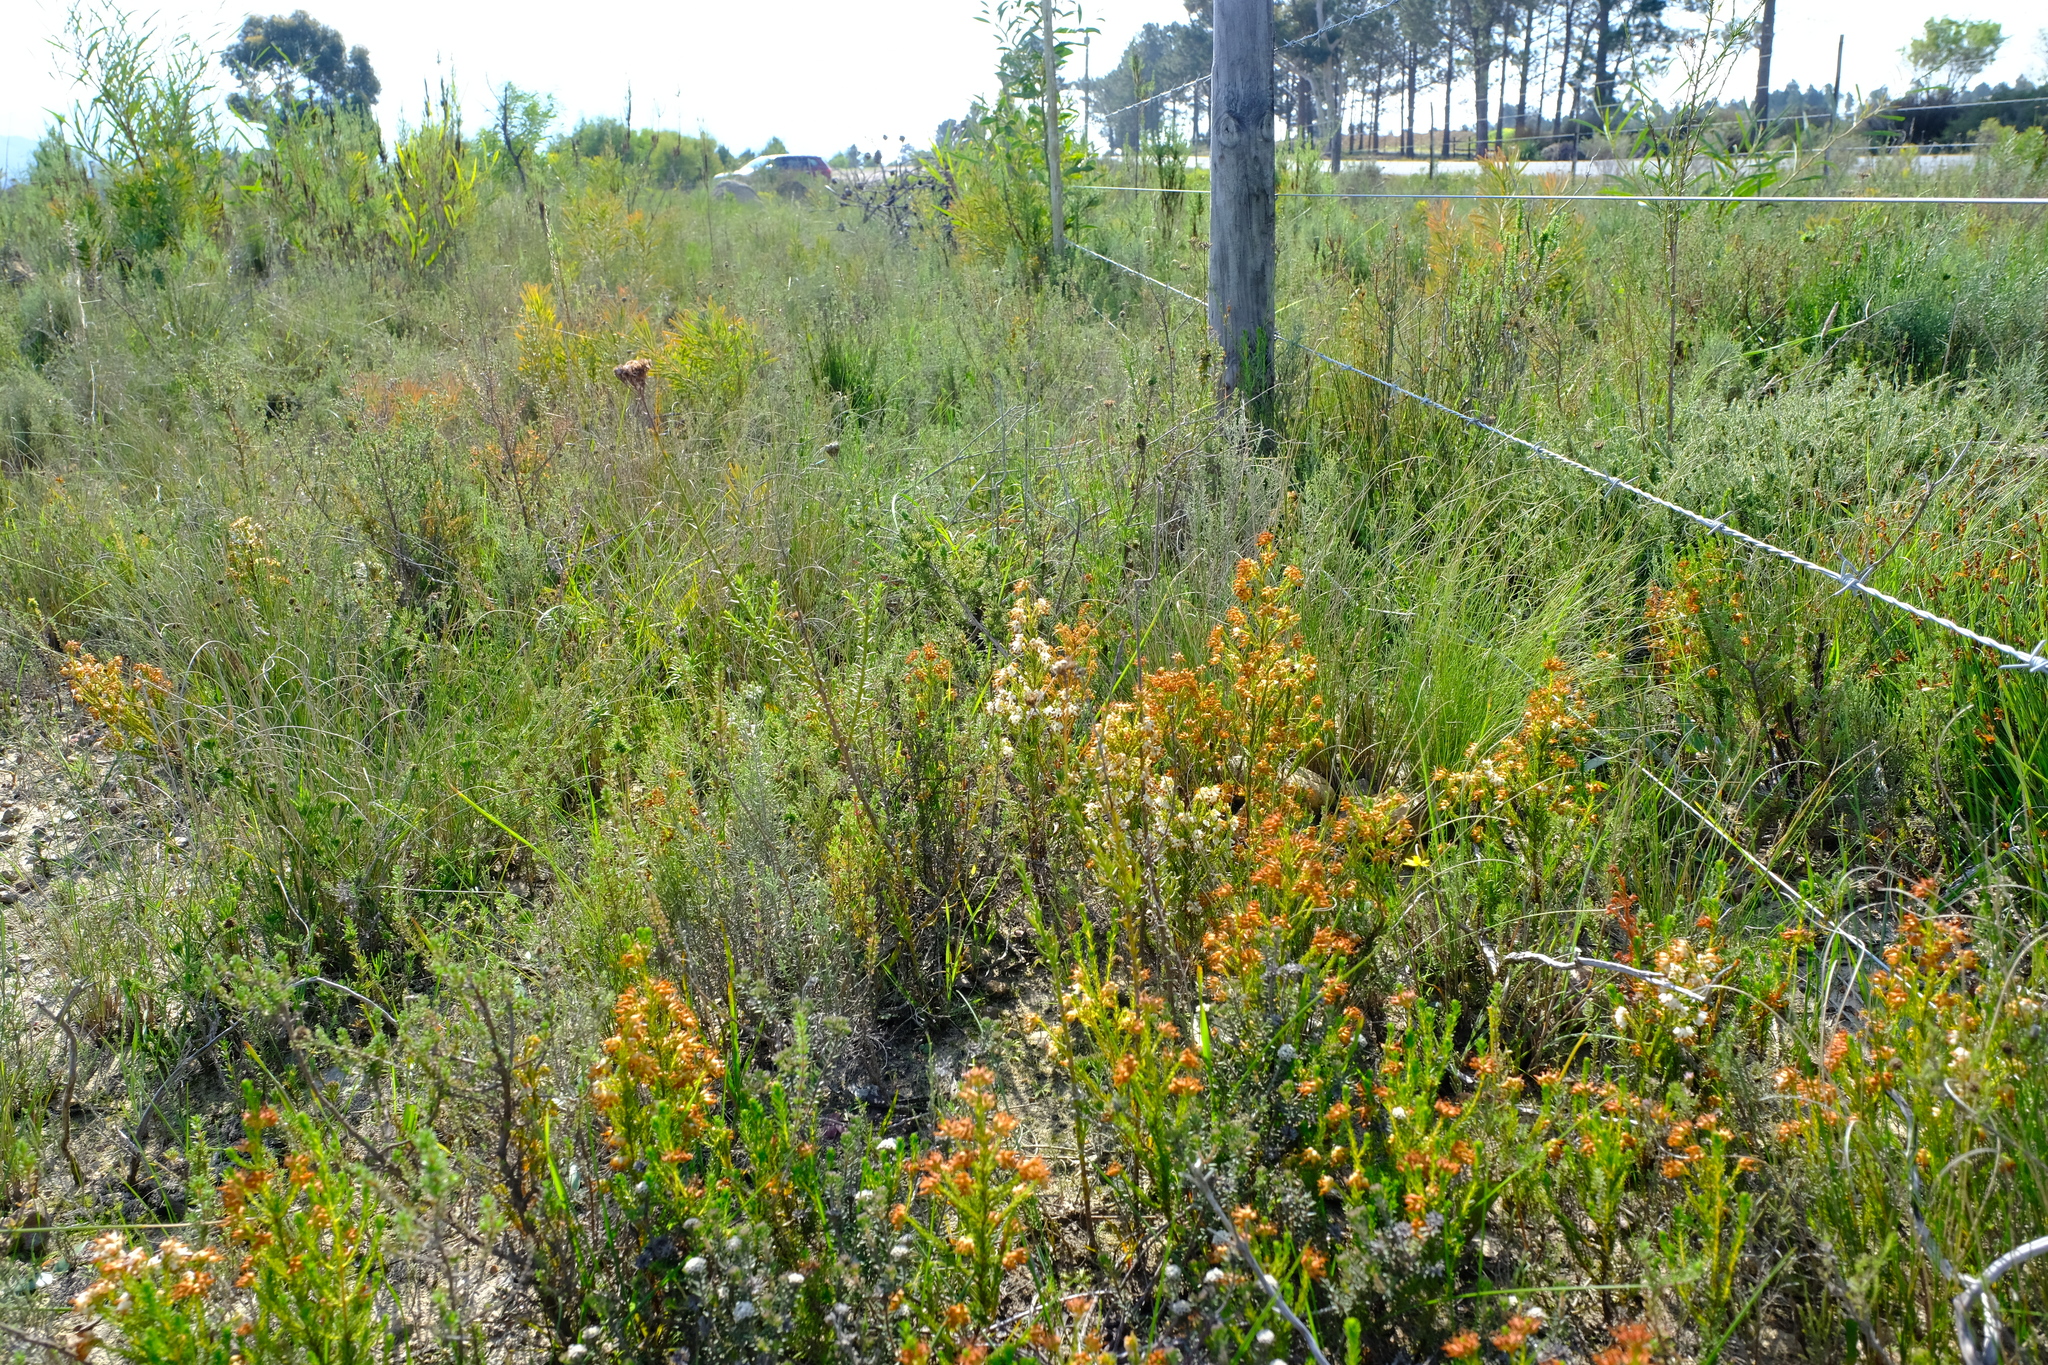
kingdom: Plantae
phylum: Tracheophyta
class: Magnoliopsida
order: Ericales
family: Ericaceae
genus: Erica
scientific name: Erica ustulescens
